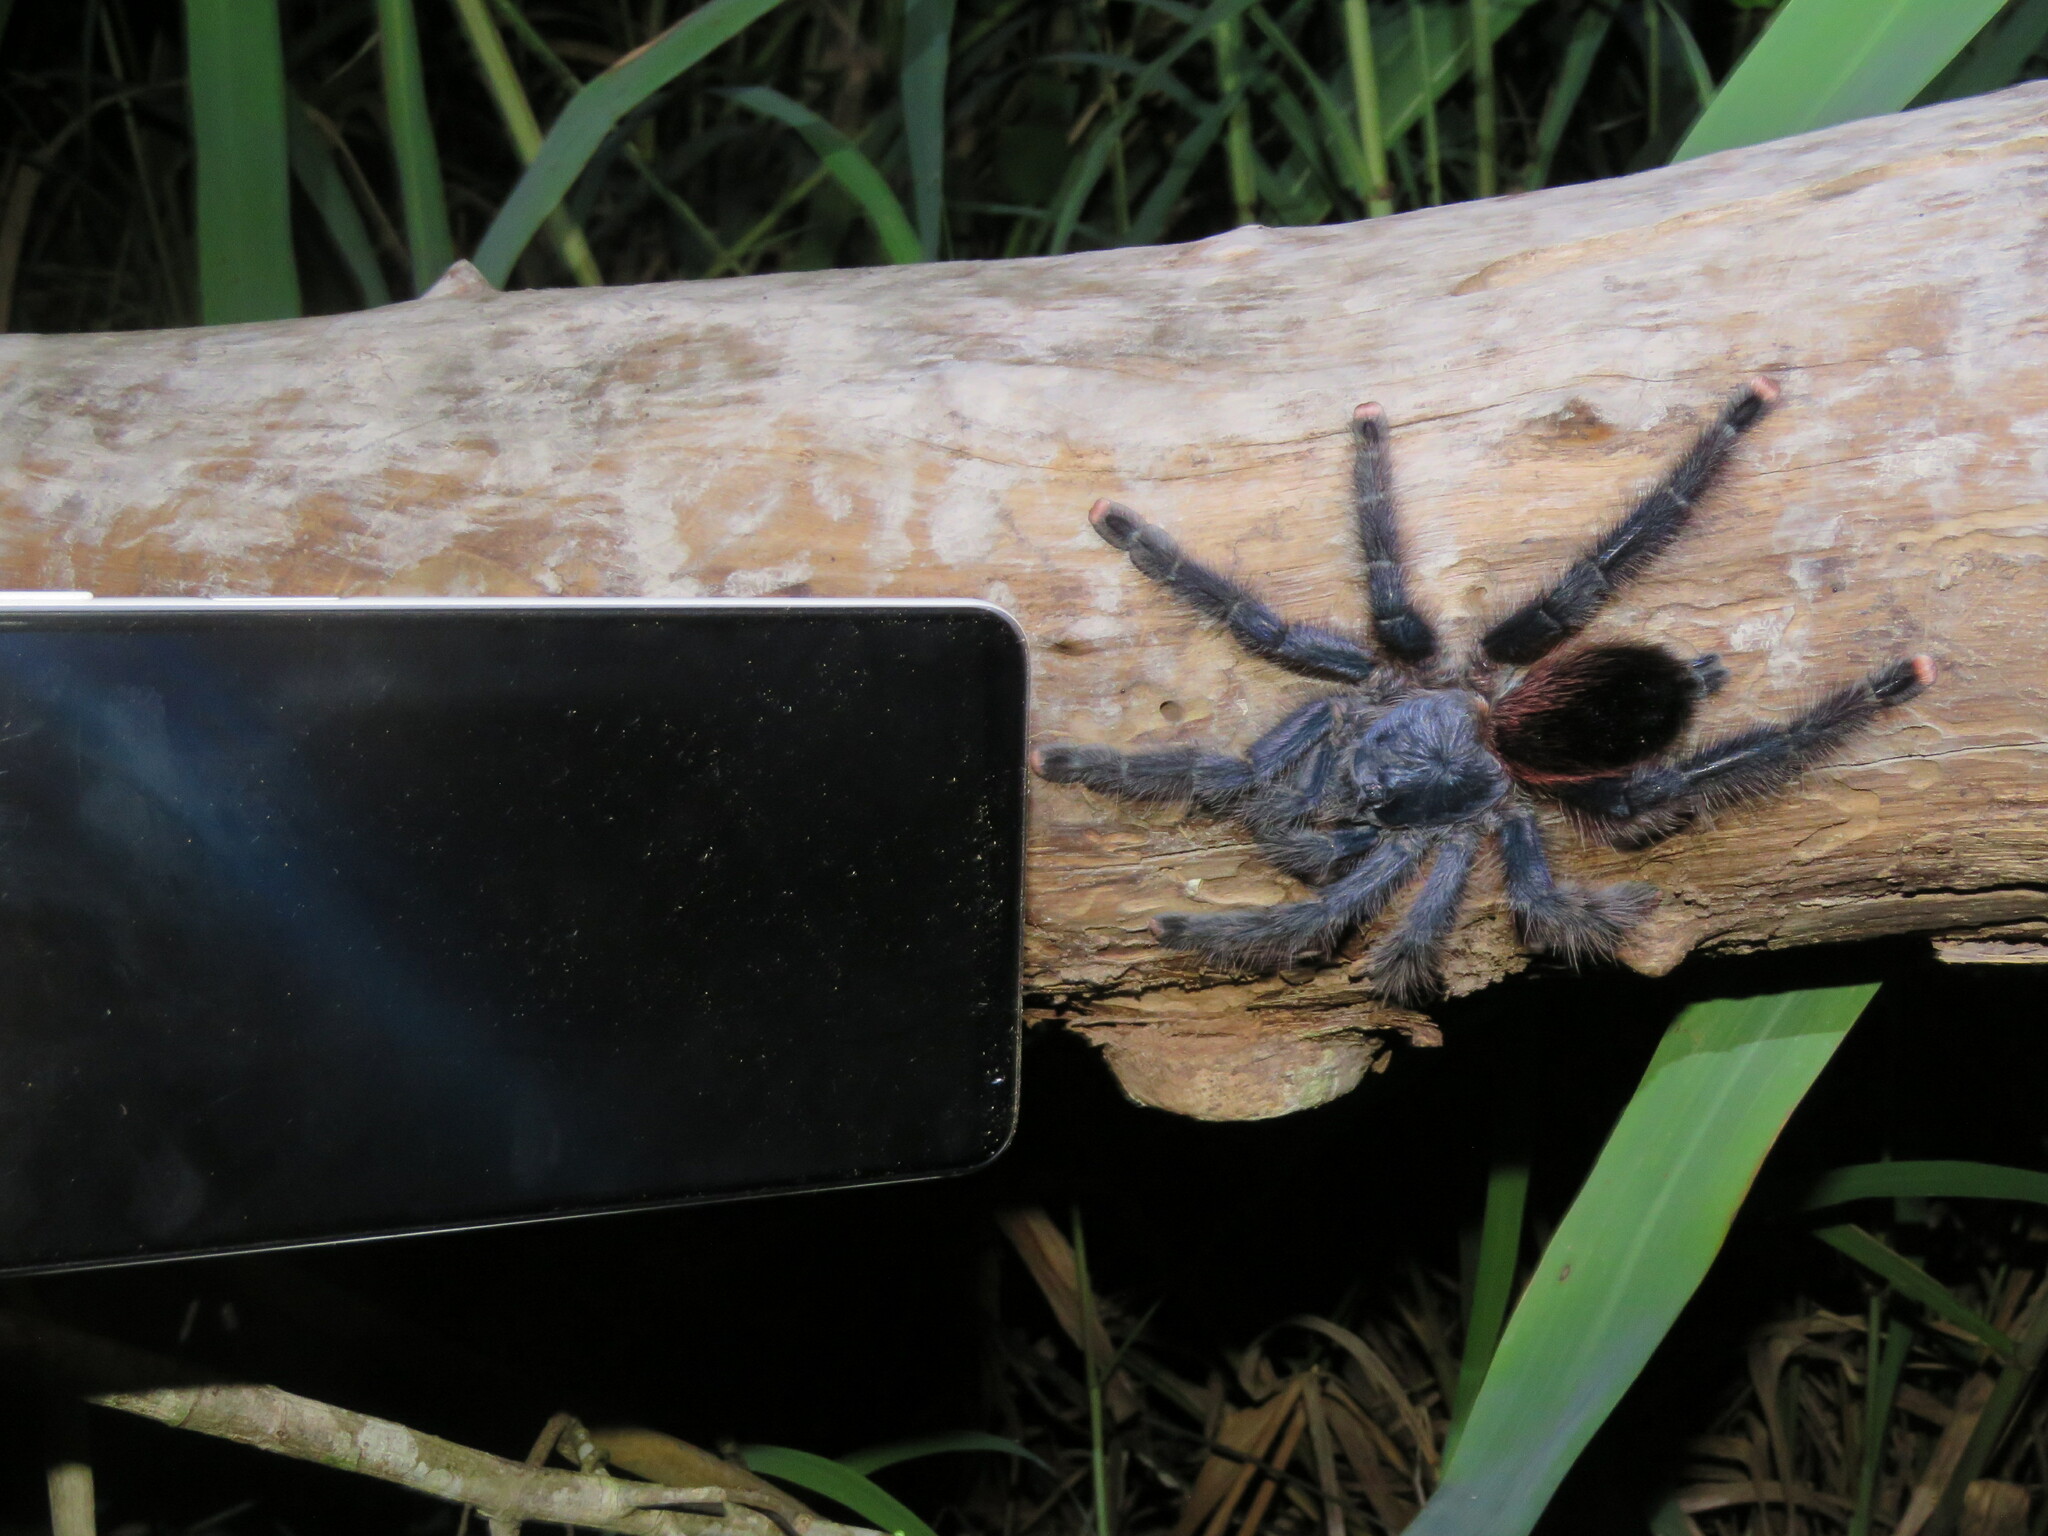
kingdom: Animalia
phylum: Arthropoda
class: Arachnida
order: Araneae
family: Theraphosidae
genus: Avicularia
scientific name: Avicularia avicularia
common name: Tarantula spiders
